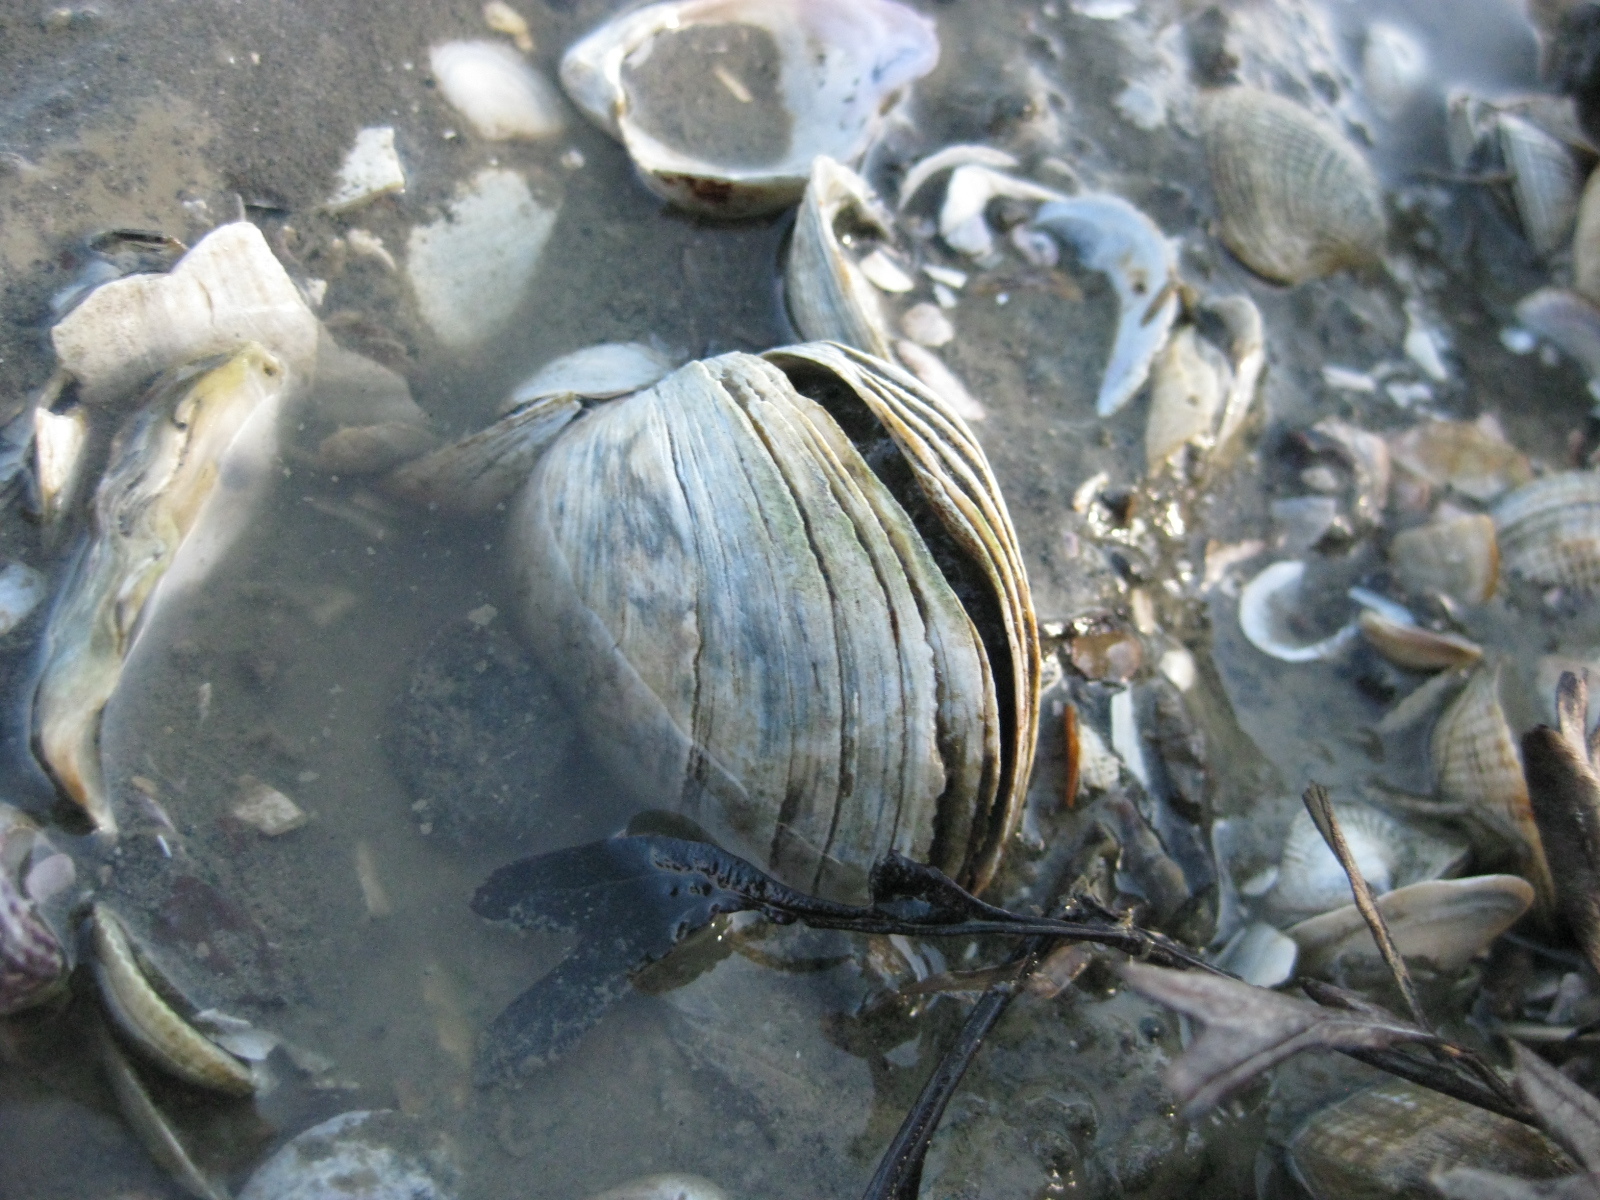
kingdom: Animalia
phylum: Mollusca
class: Bivalvia
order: Venerida
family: Mactridae
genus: Cyclomactra
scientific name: Cyclomactra ovata
